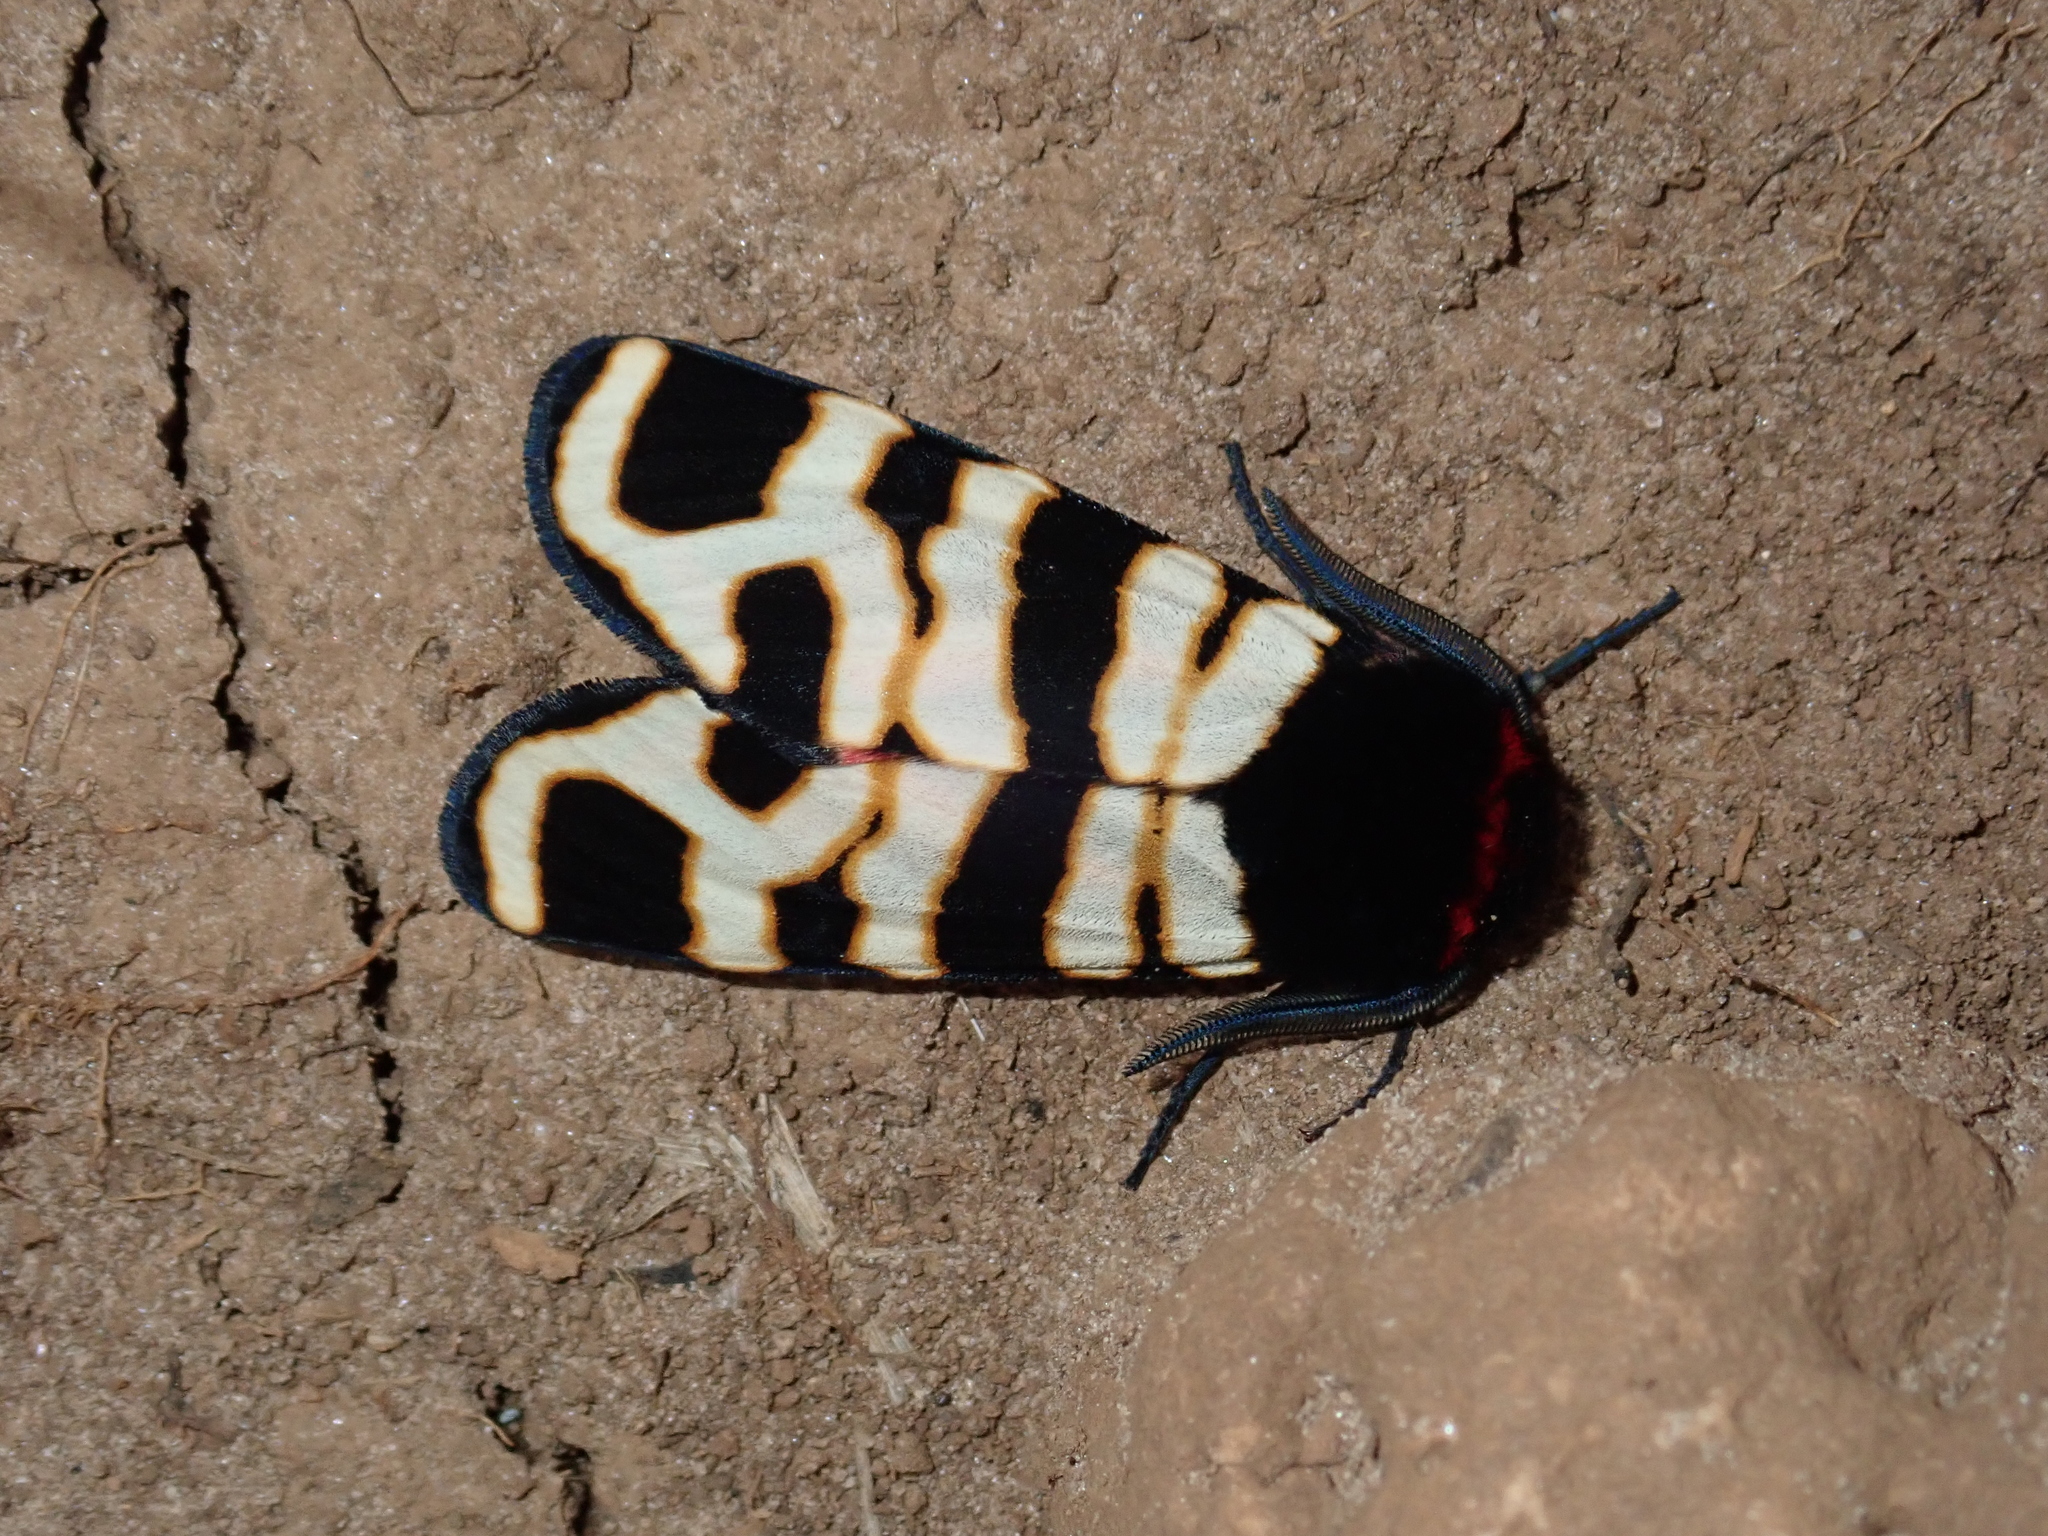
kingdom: Animalia
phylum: Arthropoda
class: Insecta
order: Lepidoptera
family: Erebidae
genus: Eucharia
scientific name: Eucharia festiva
